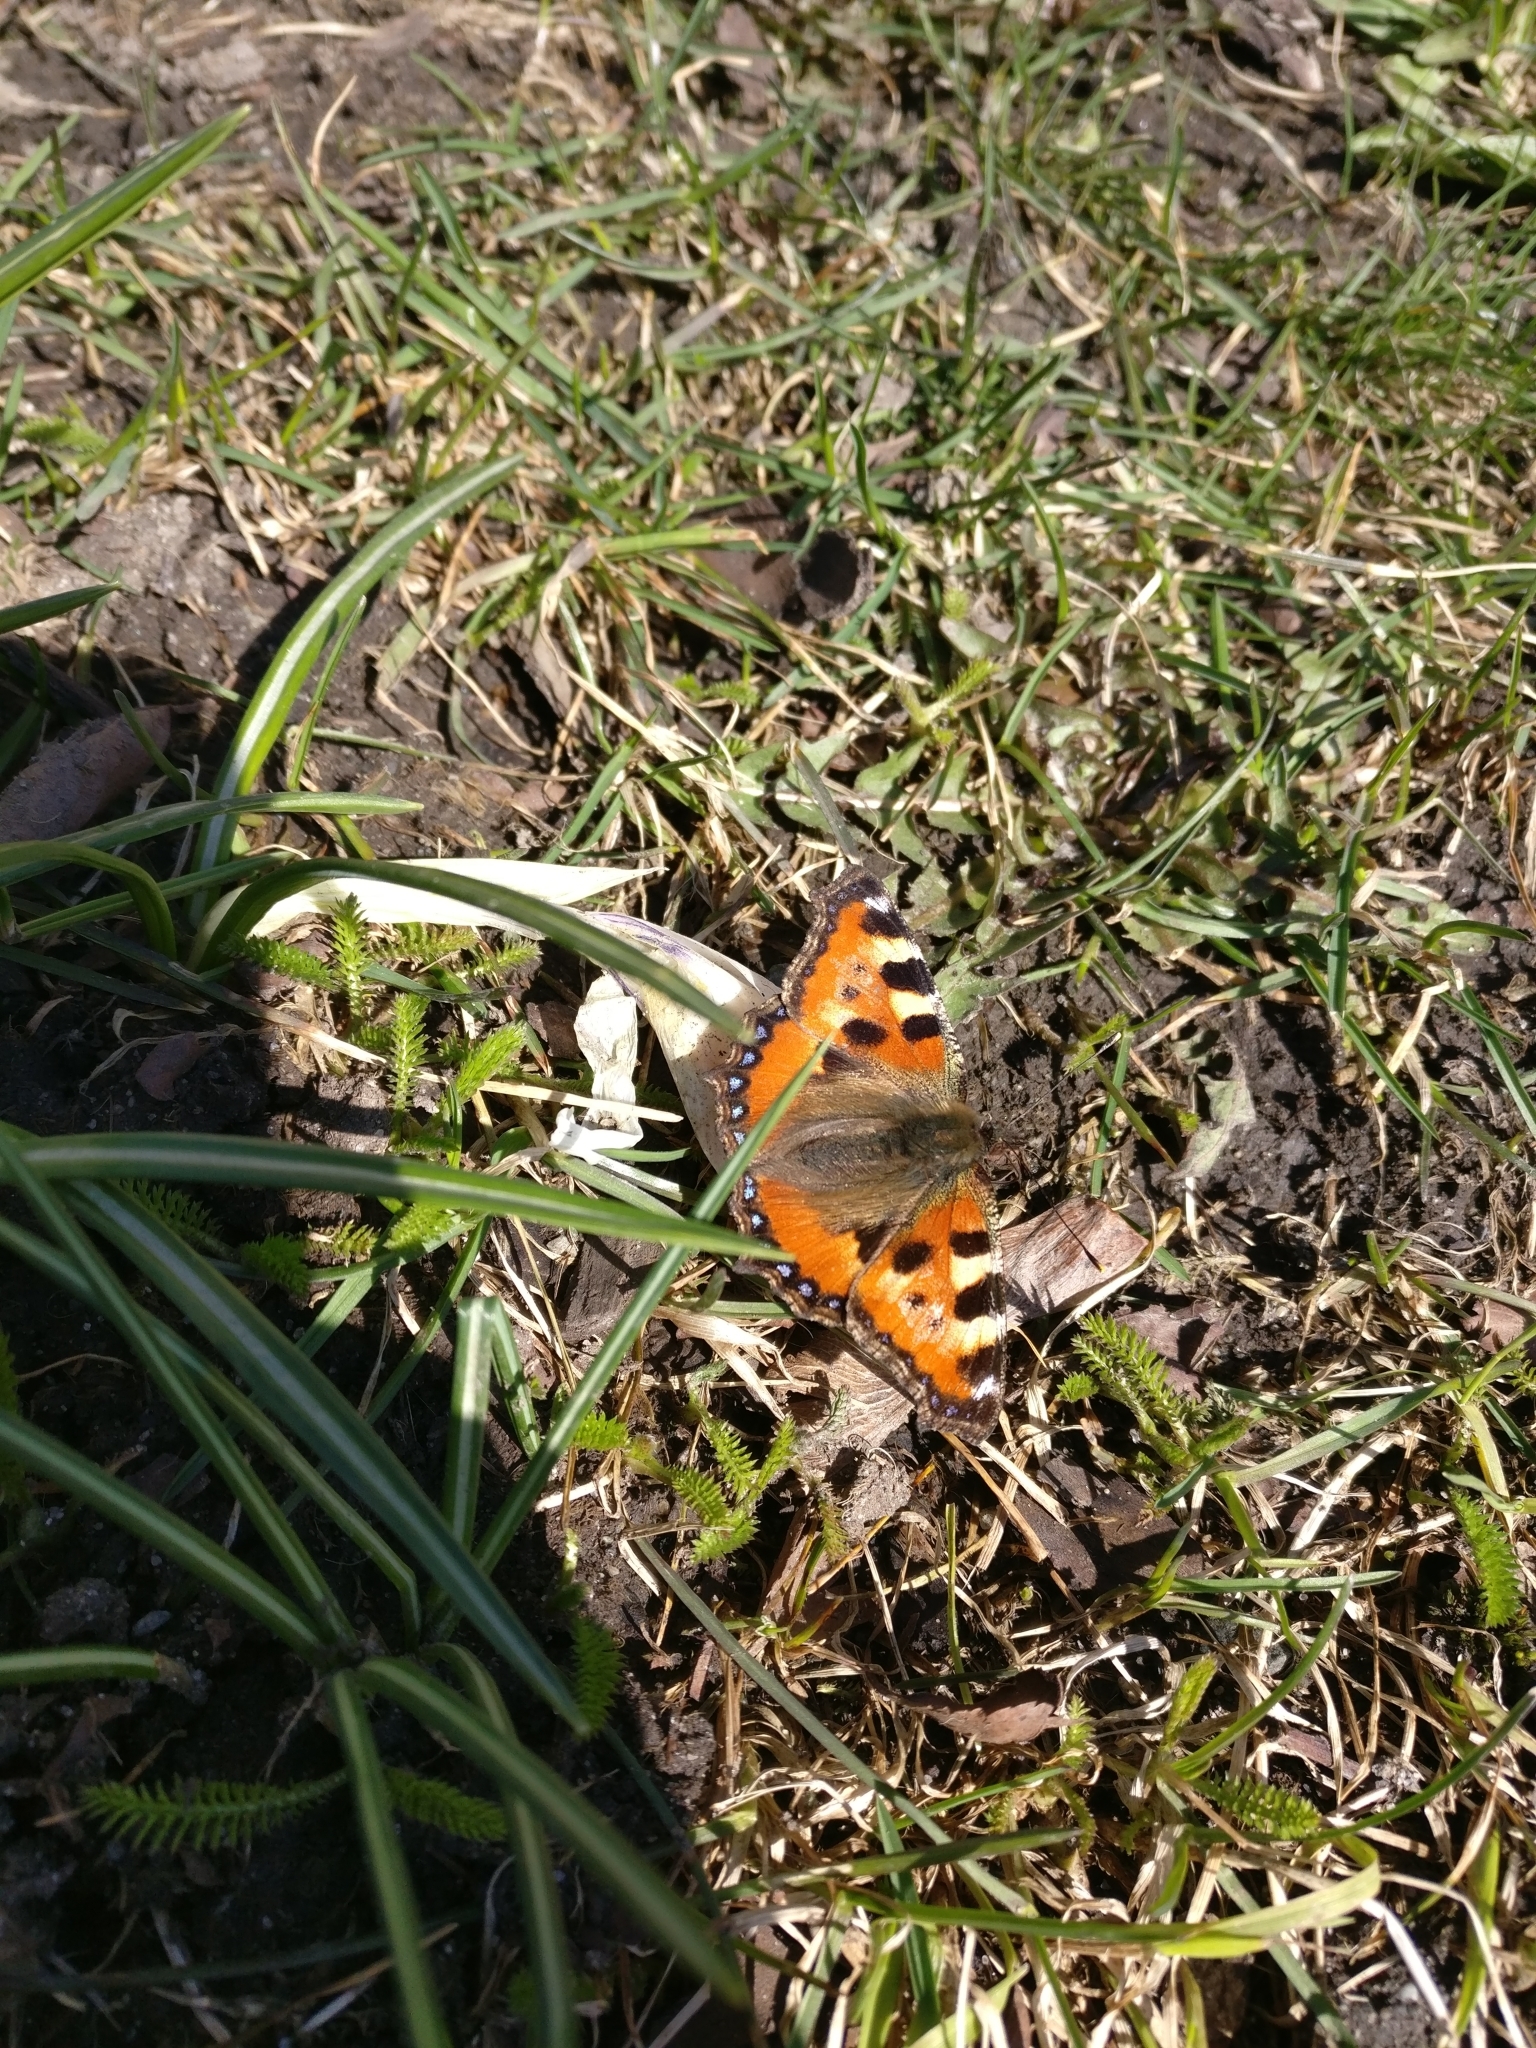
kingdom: Animalia
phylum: Arthropoda
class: Insecta
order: Lepidoptera
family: Nymphalidae
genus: Aglais
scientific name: Aglais urticae
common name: Small tortoiseshell
